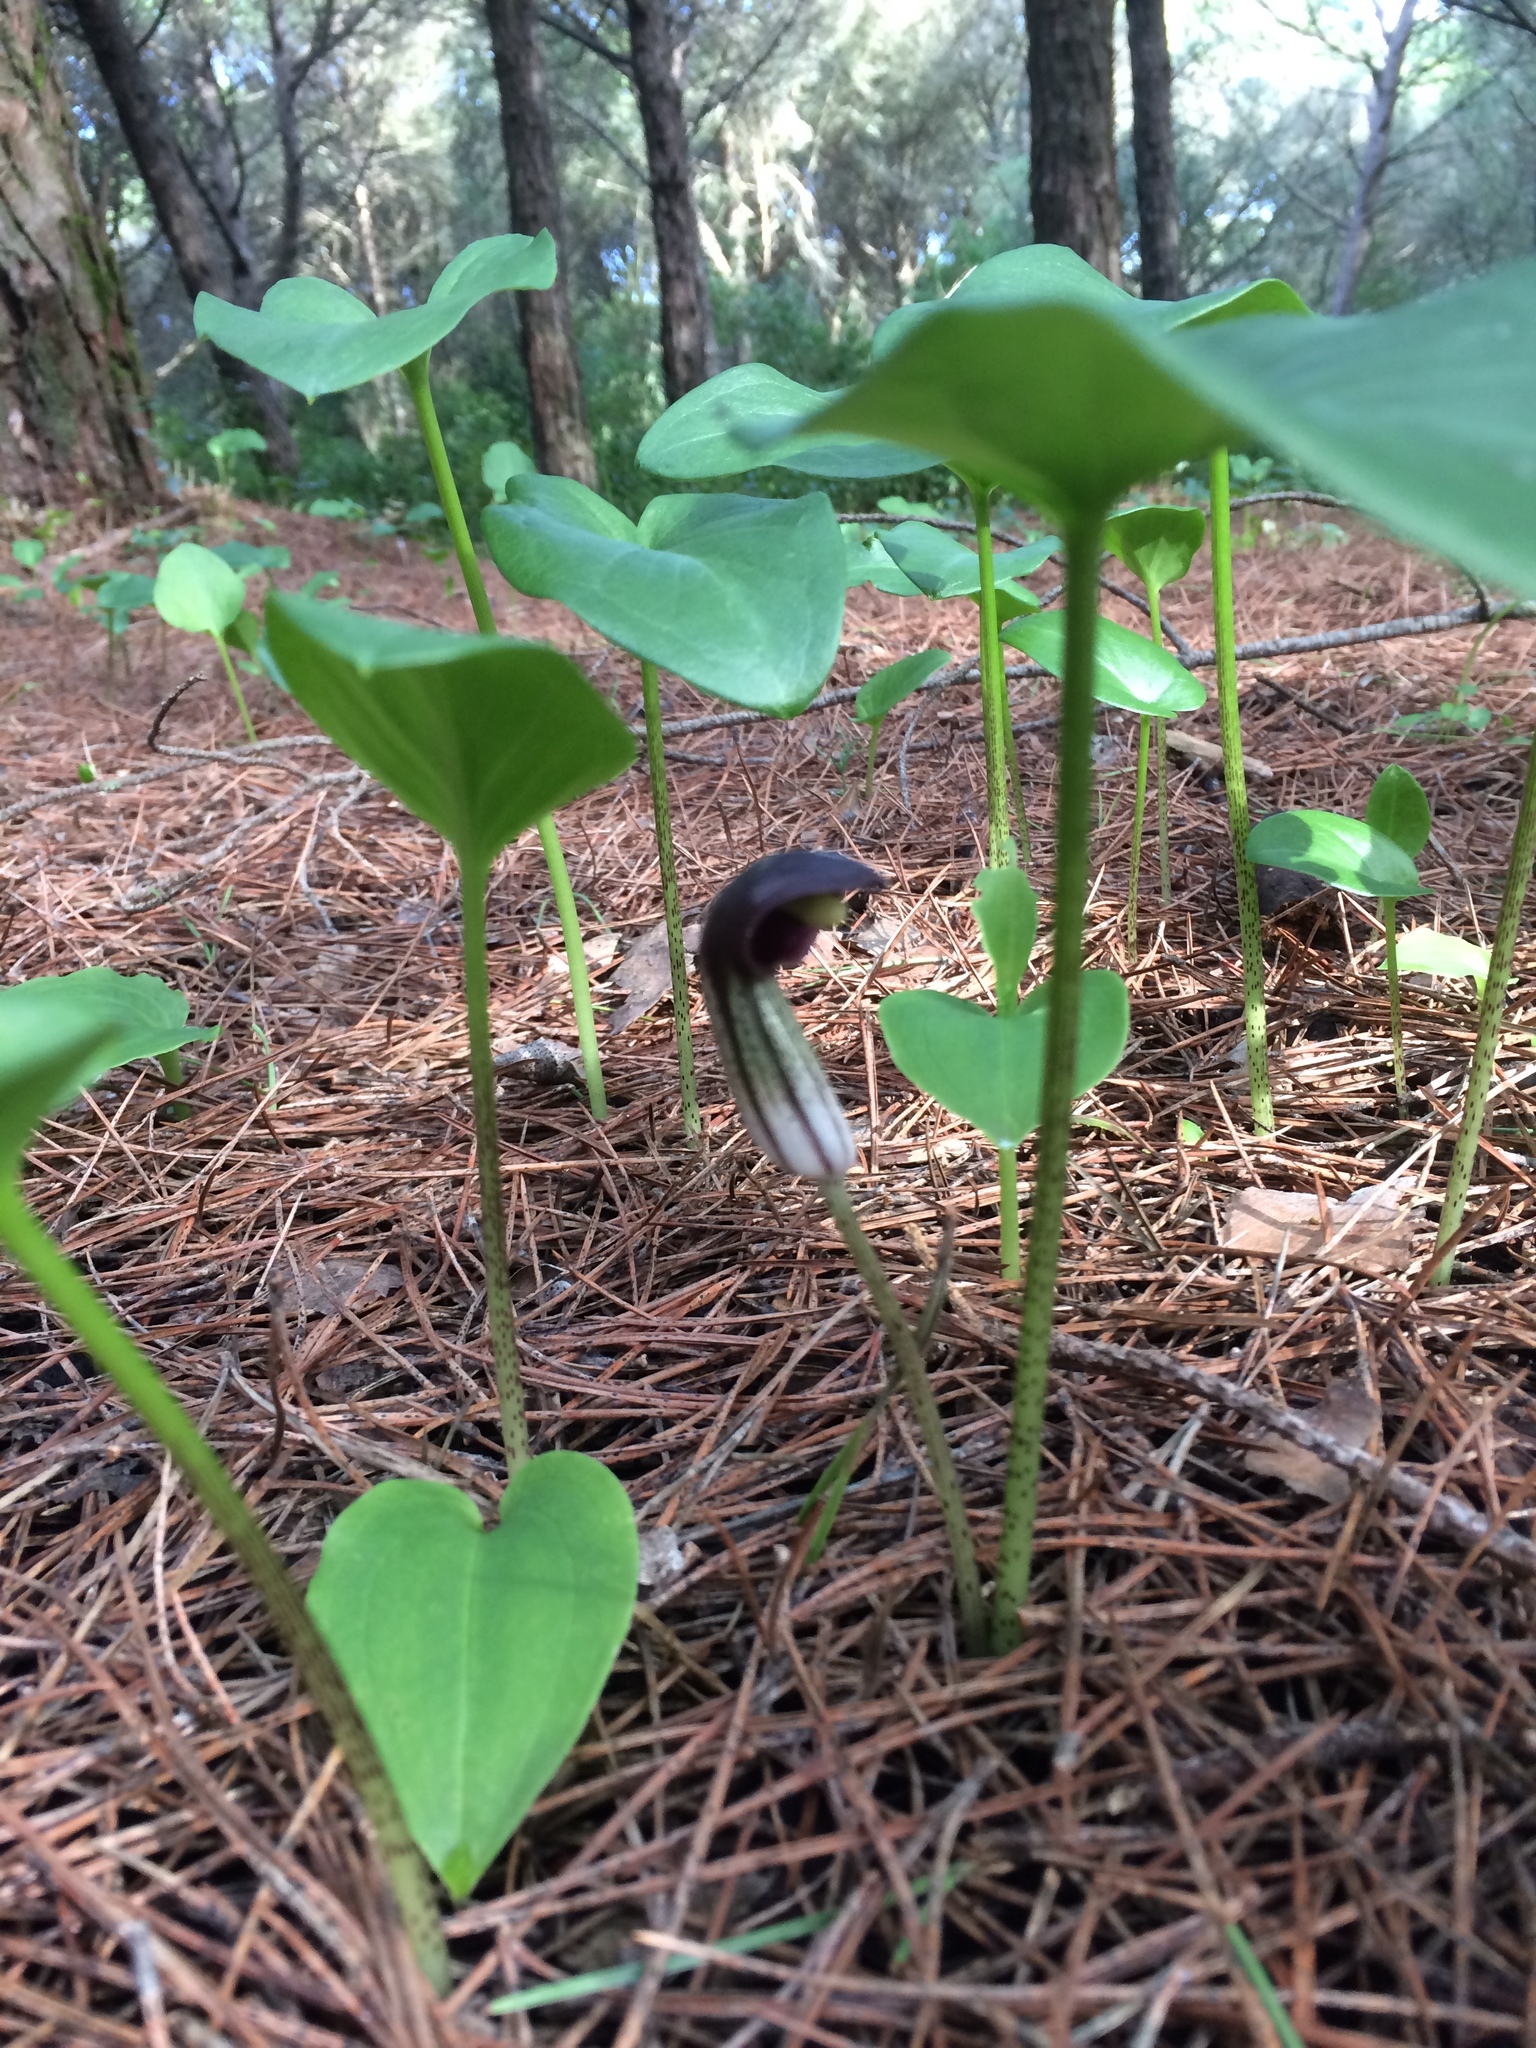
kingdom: Plantae
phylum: Tracheophyta
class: Liliopsida
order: Alismatales
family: Araceae
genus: Arisarum
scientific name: Arisarum simorrhinum
